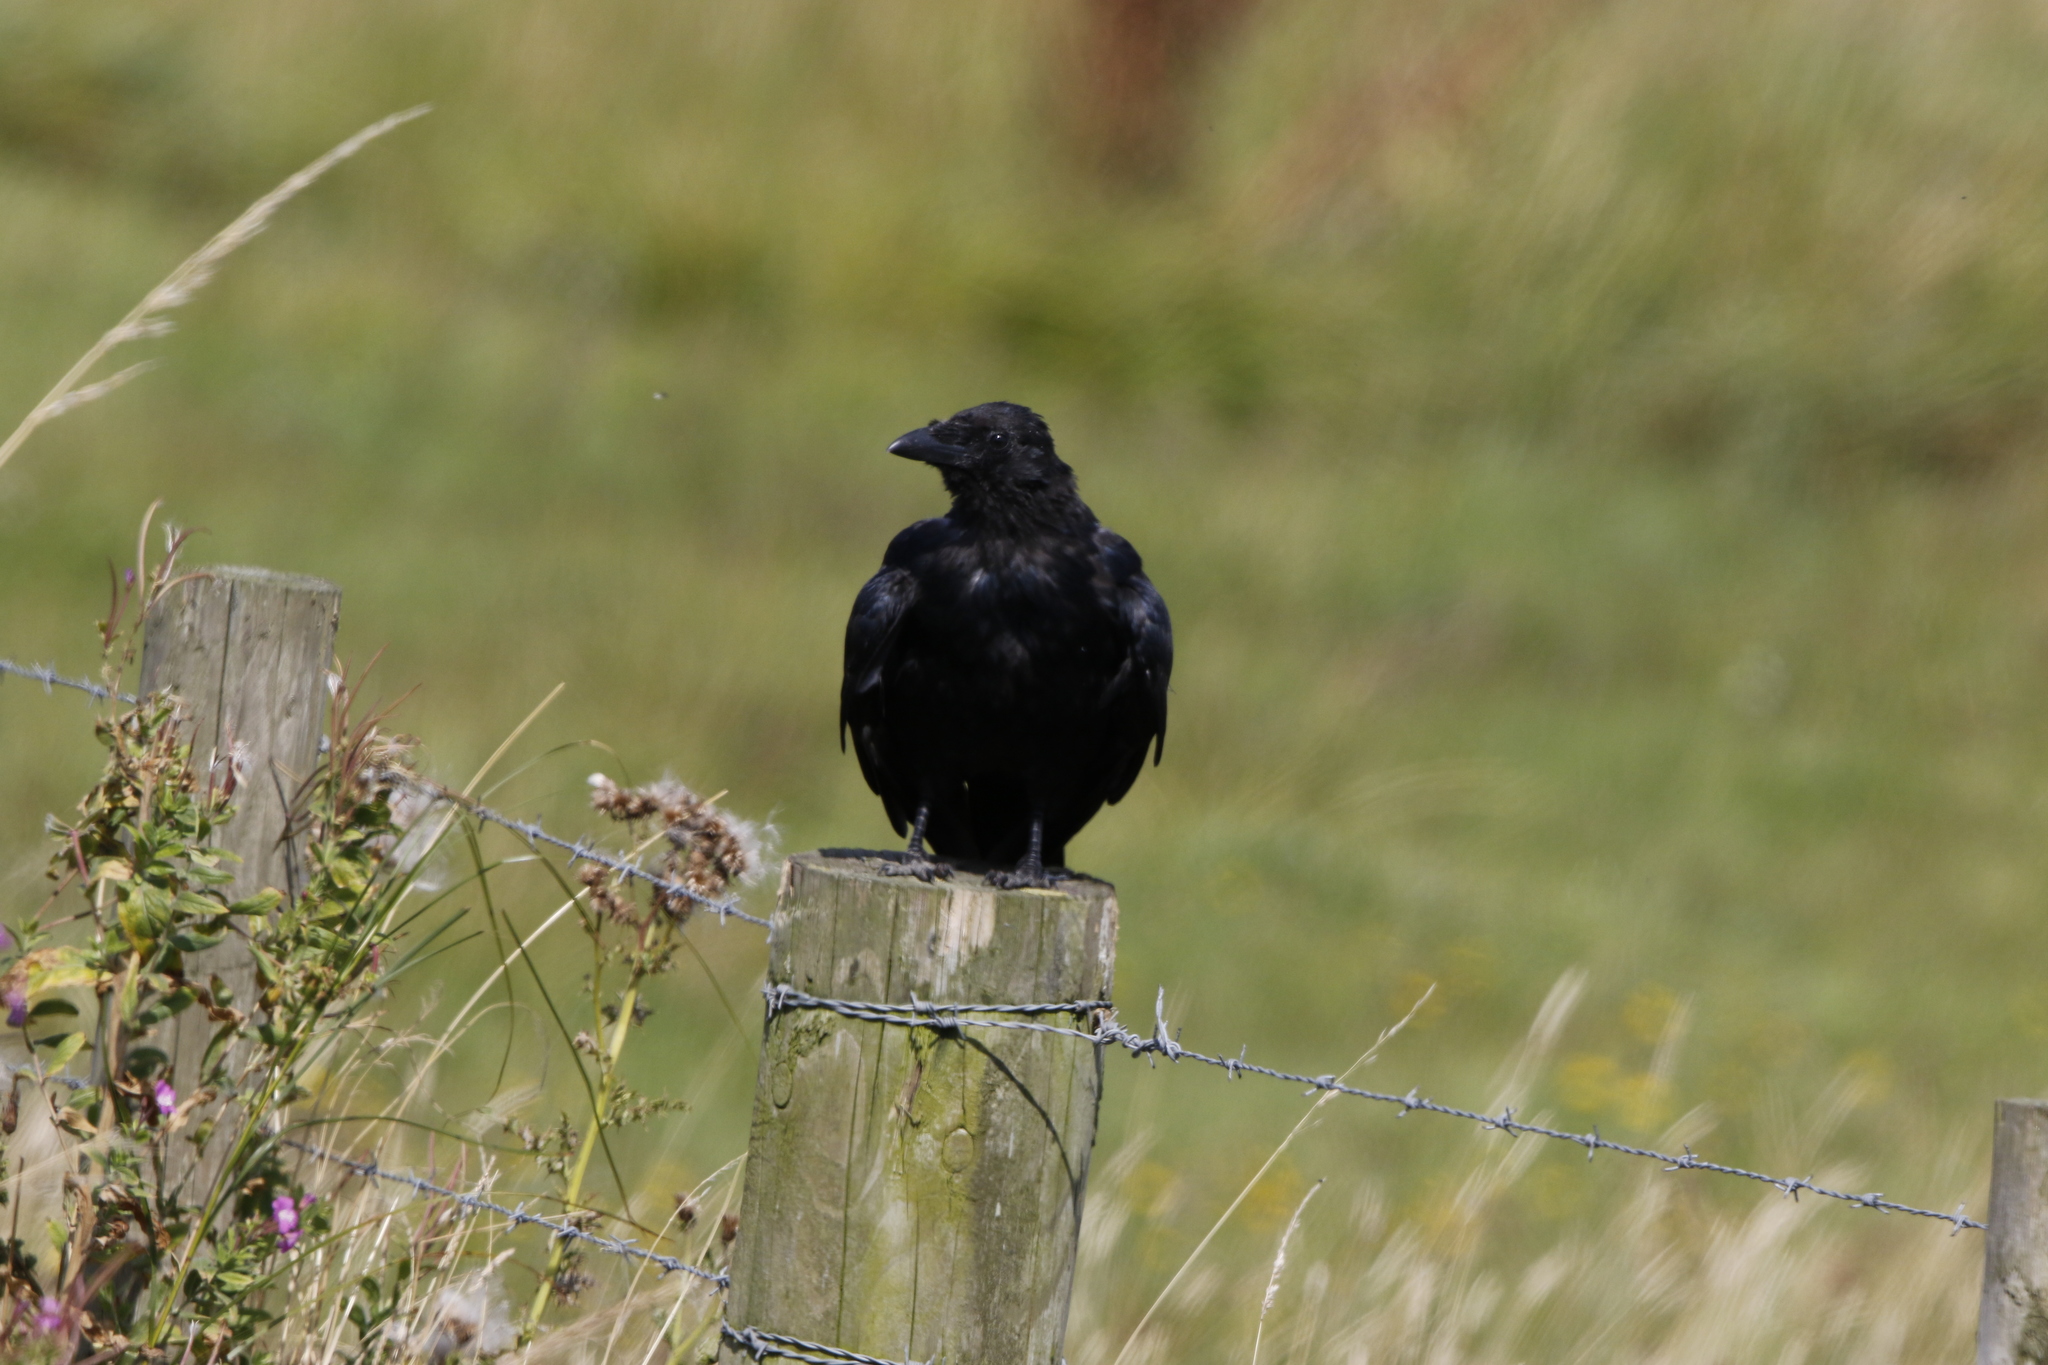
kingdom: Animalia
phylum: Chordata
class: Aves
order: Passeriformes
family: Corvidae
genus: Corvus
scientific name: Corvus corone
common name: Carrion crow
